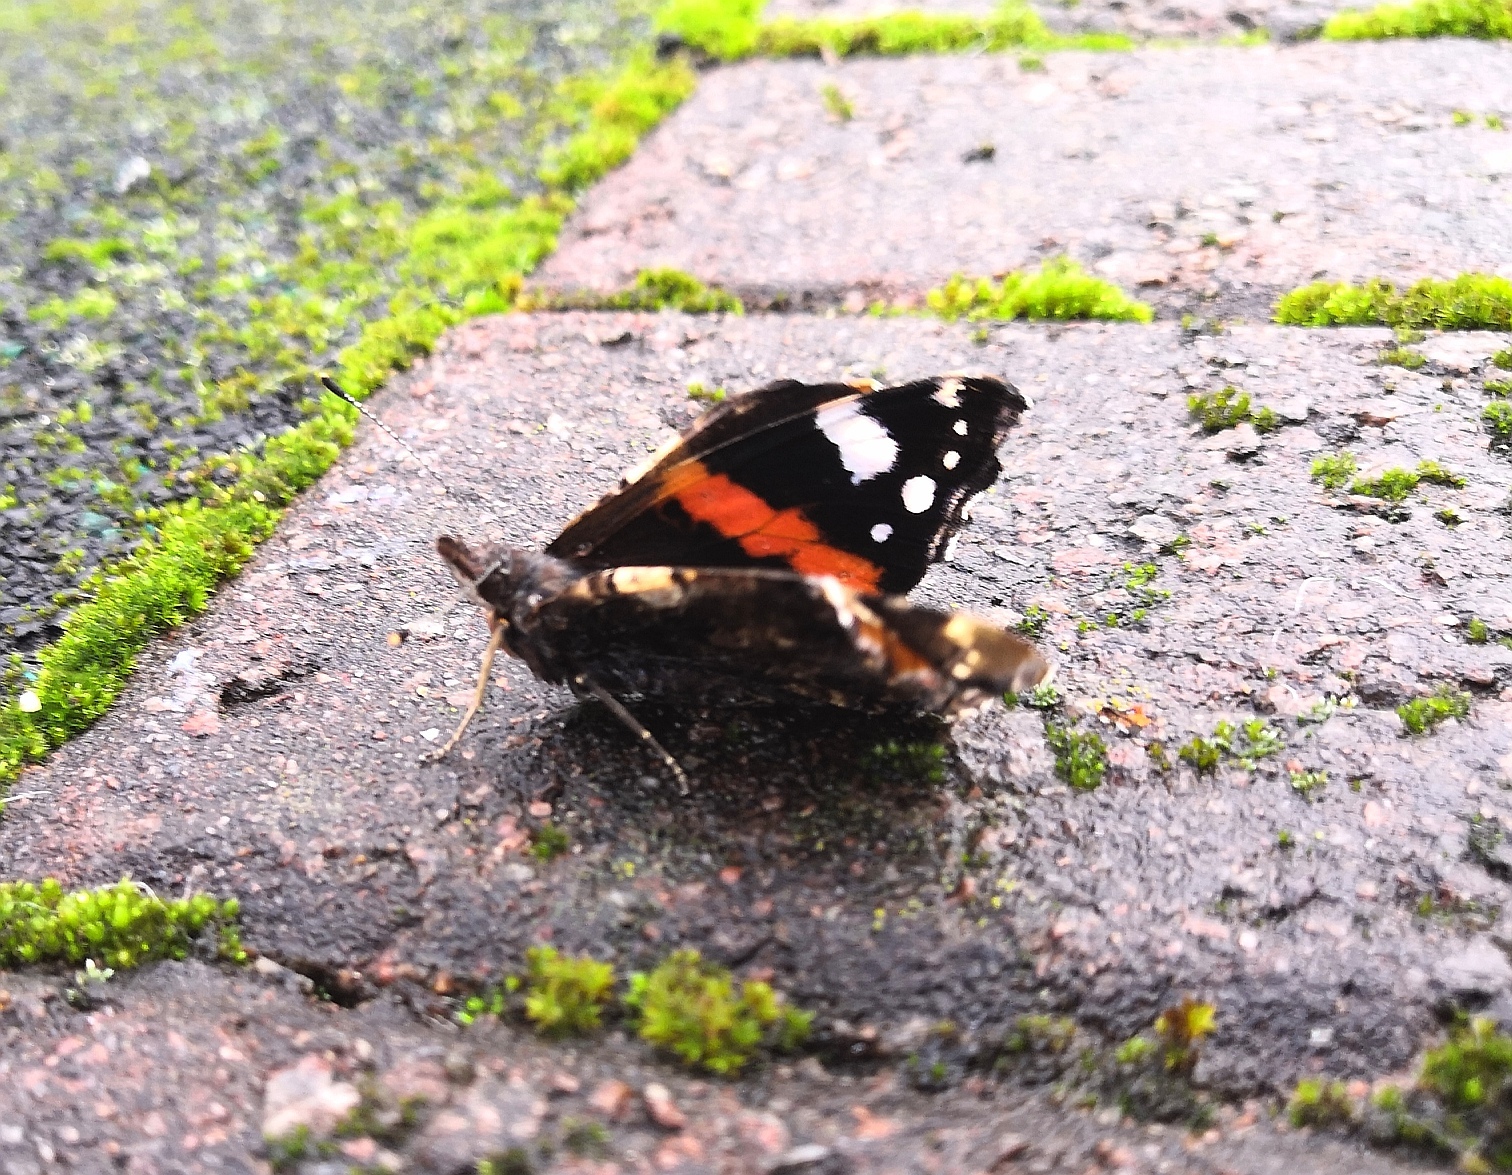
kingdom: Animalia
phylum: Arthropoda
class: Insecta
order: Lepidoptera
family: Nymphalidae
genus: Vanessa
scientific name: Vanessa atalanta
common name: Red admiral
